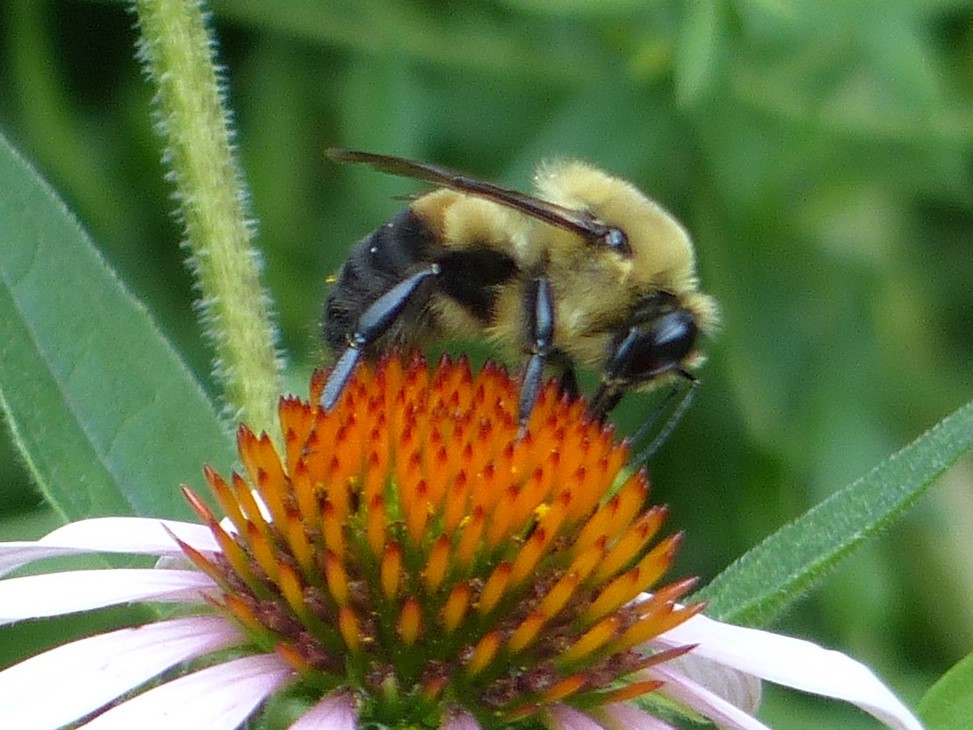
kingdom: Animalia
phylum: Arthropoda
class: Insecta
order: Hymenoptera
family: Apidae
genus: Bombus
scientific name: Bombus griseocollis
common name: Brown-belted bumble bee
